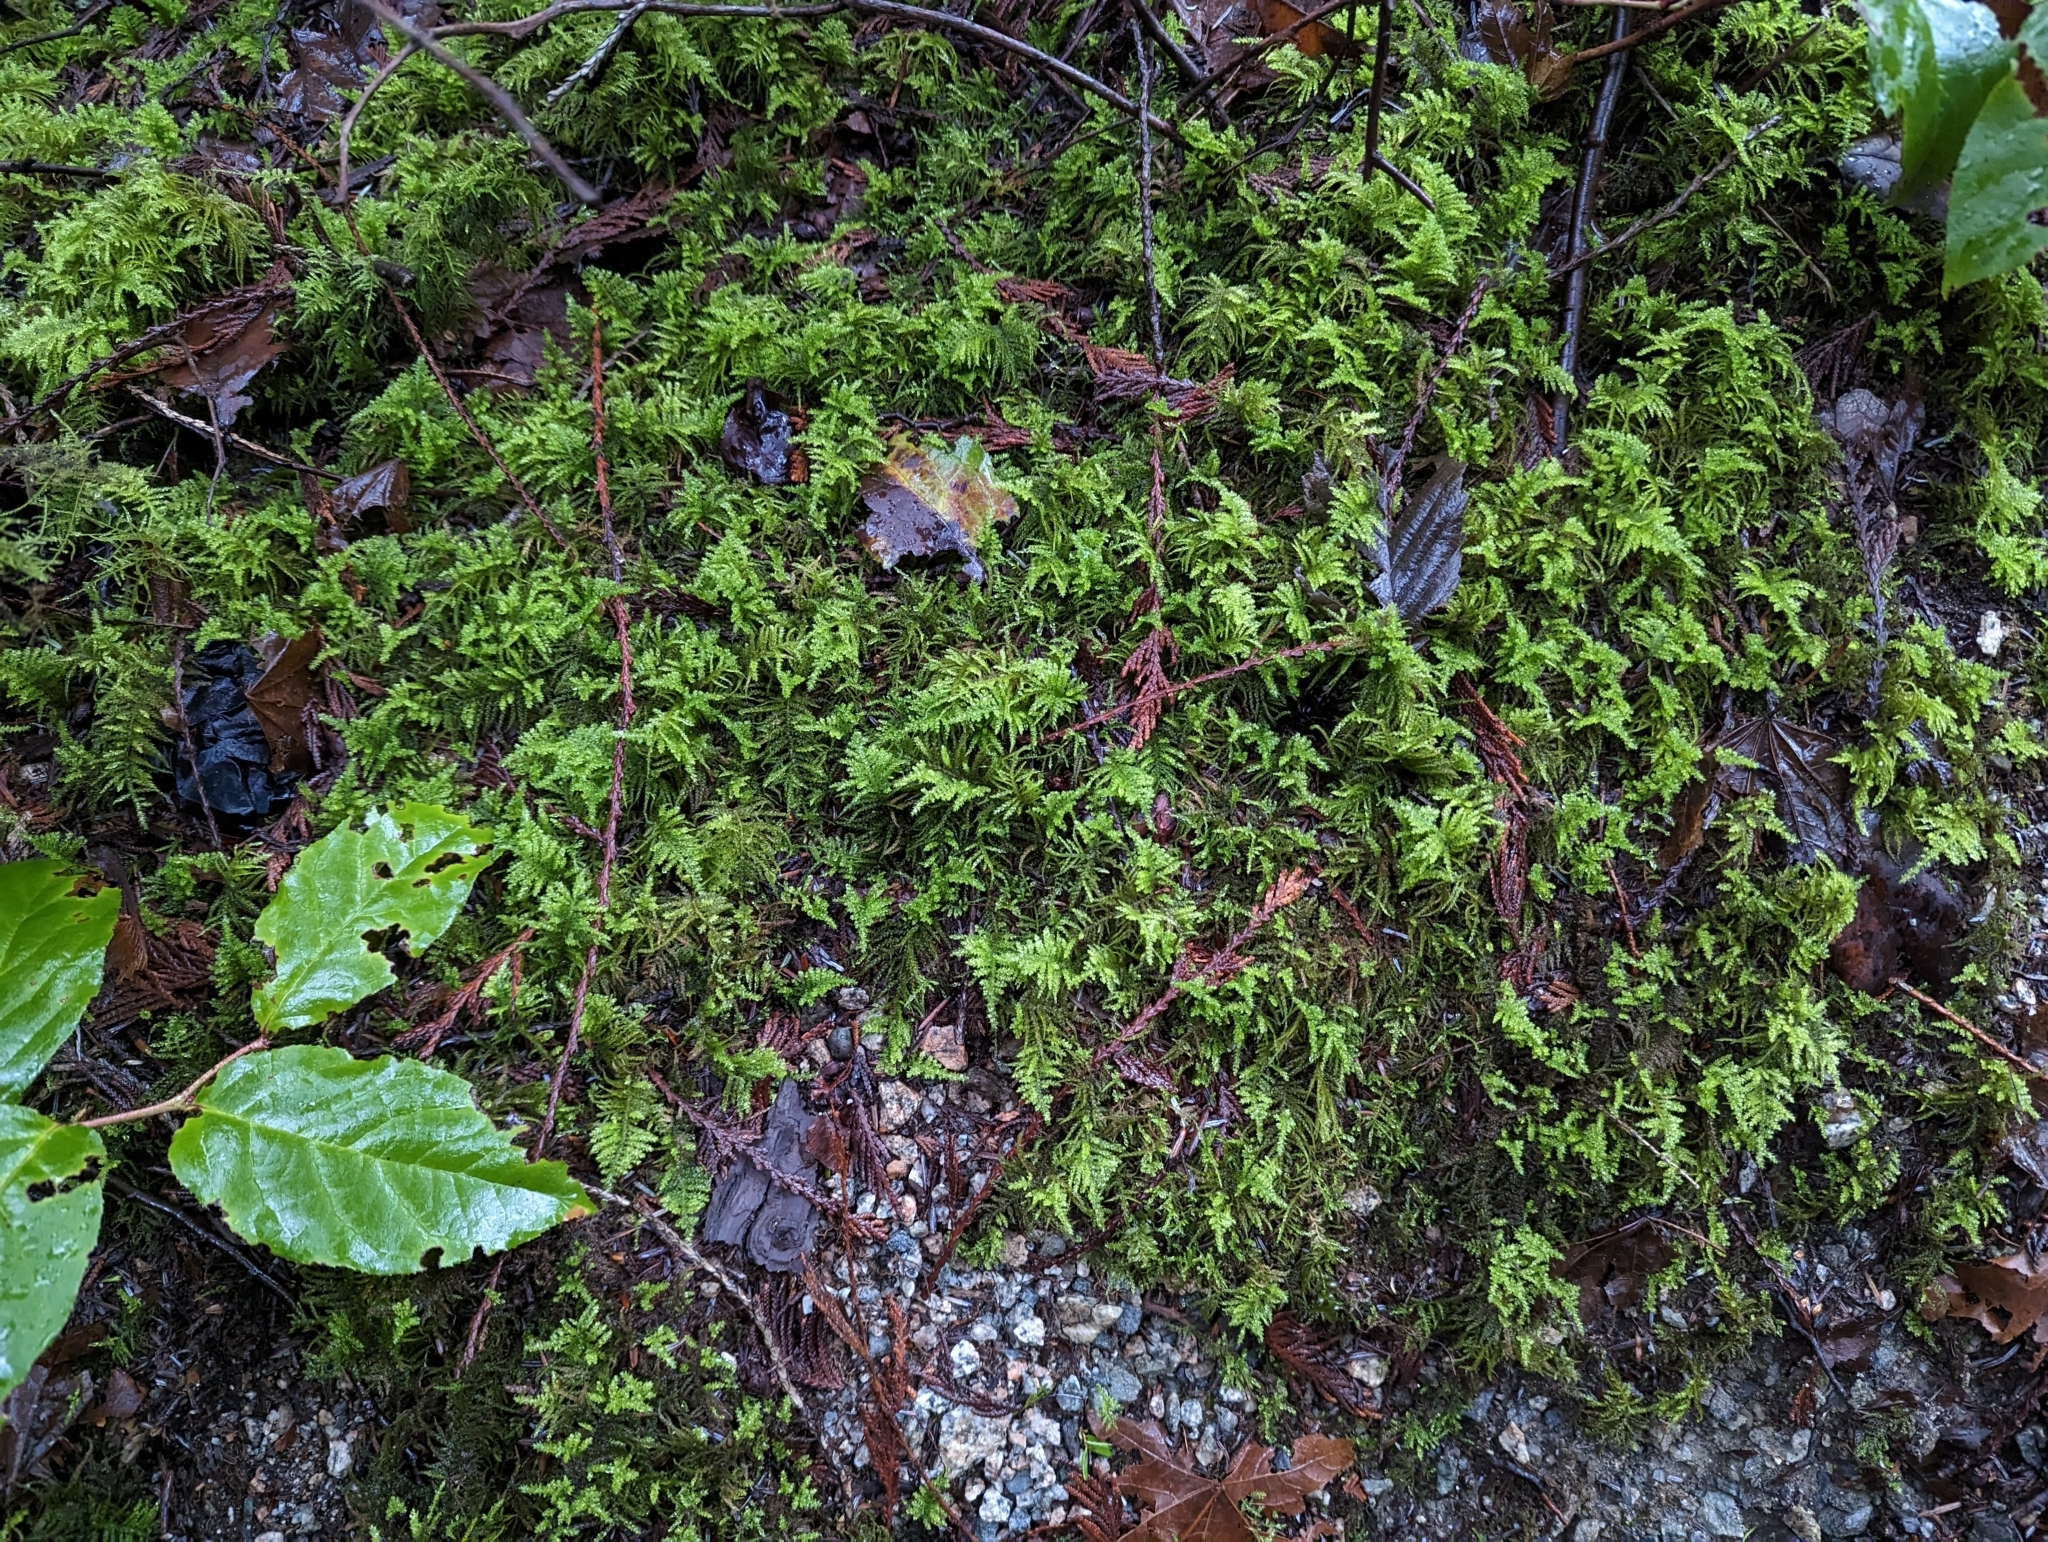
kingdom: Plantae
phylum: Bryophyta
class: Bryopsida
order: Hypnales
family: Brachytheciaceae
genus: Kindbergia
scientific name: Kindbergia oregana
